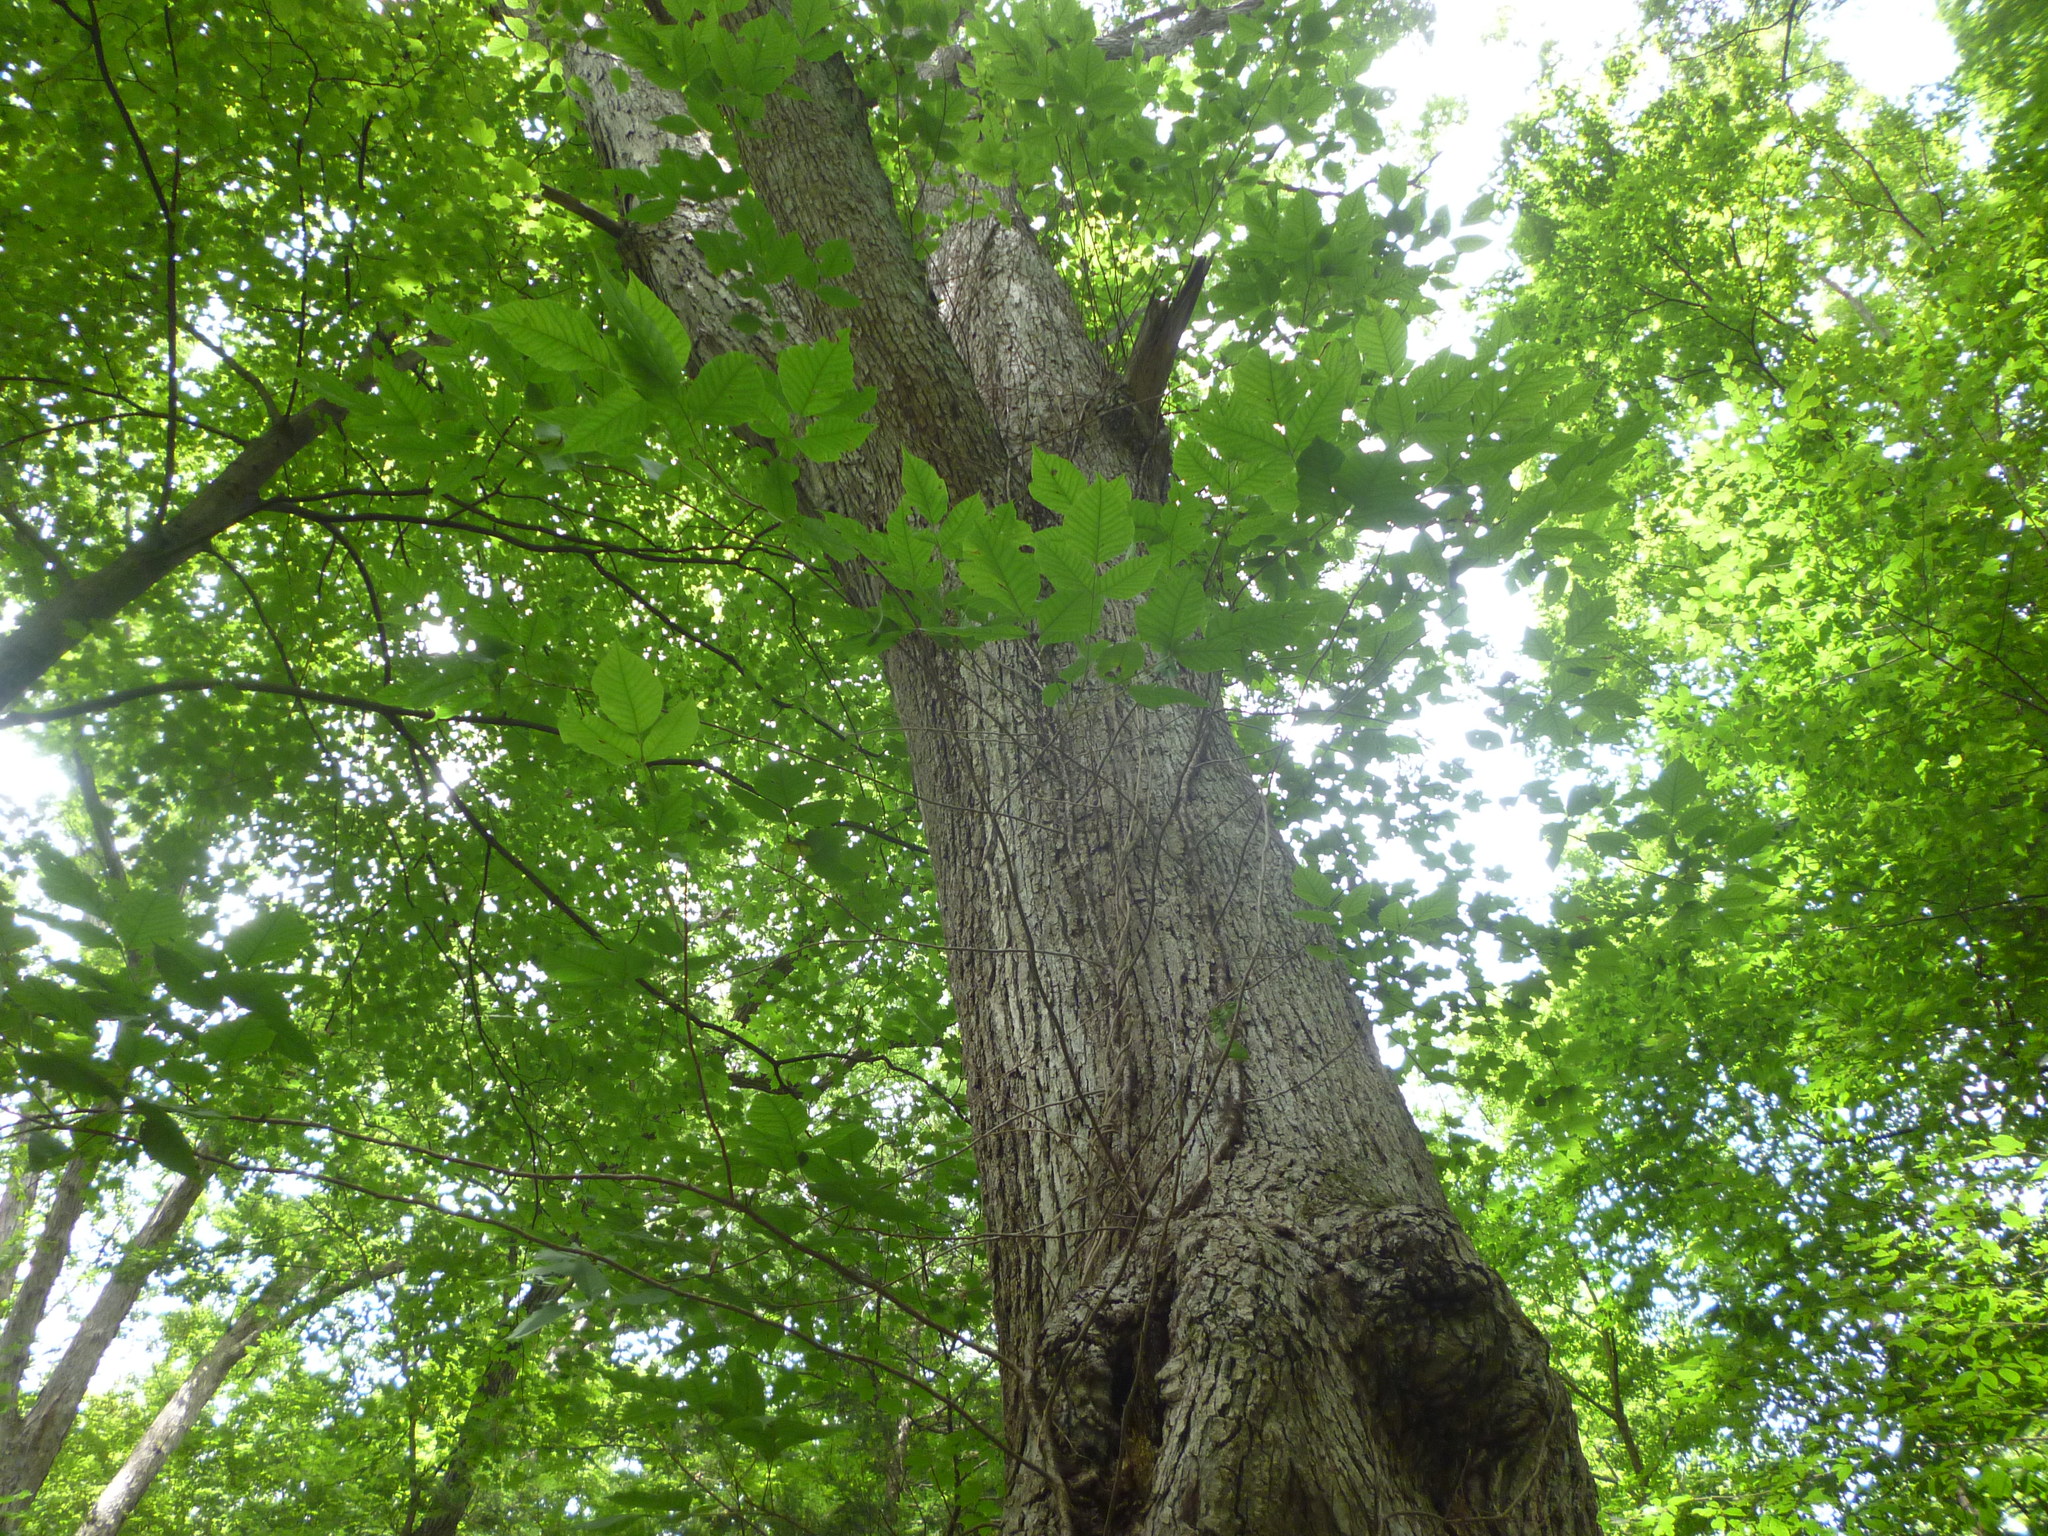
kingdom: Plantae
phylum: Tracheophyta
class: Magnoliopsida
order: Sapindales
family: Anacardiaceae
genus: Toxicodendron
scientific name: Toxicodendron radicans
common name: Poison ivy
